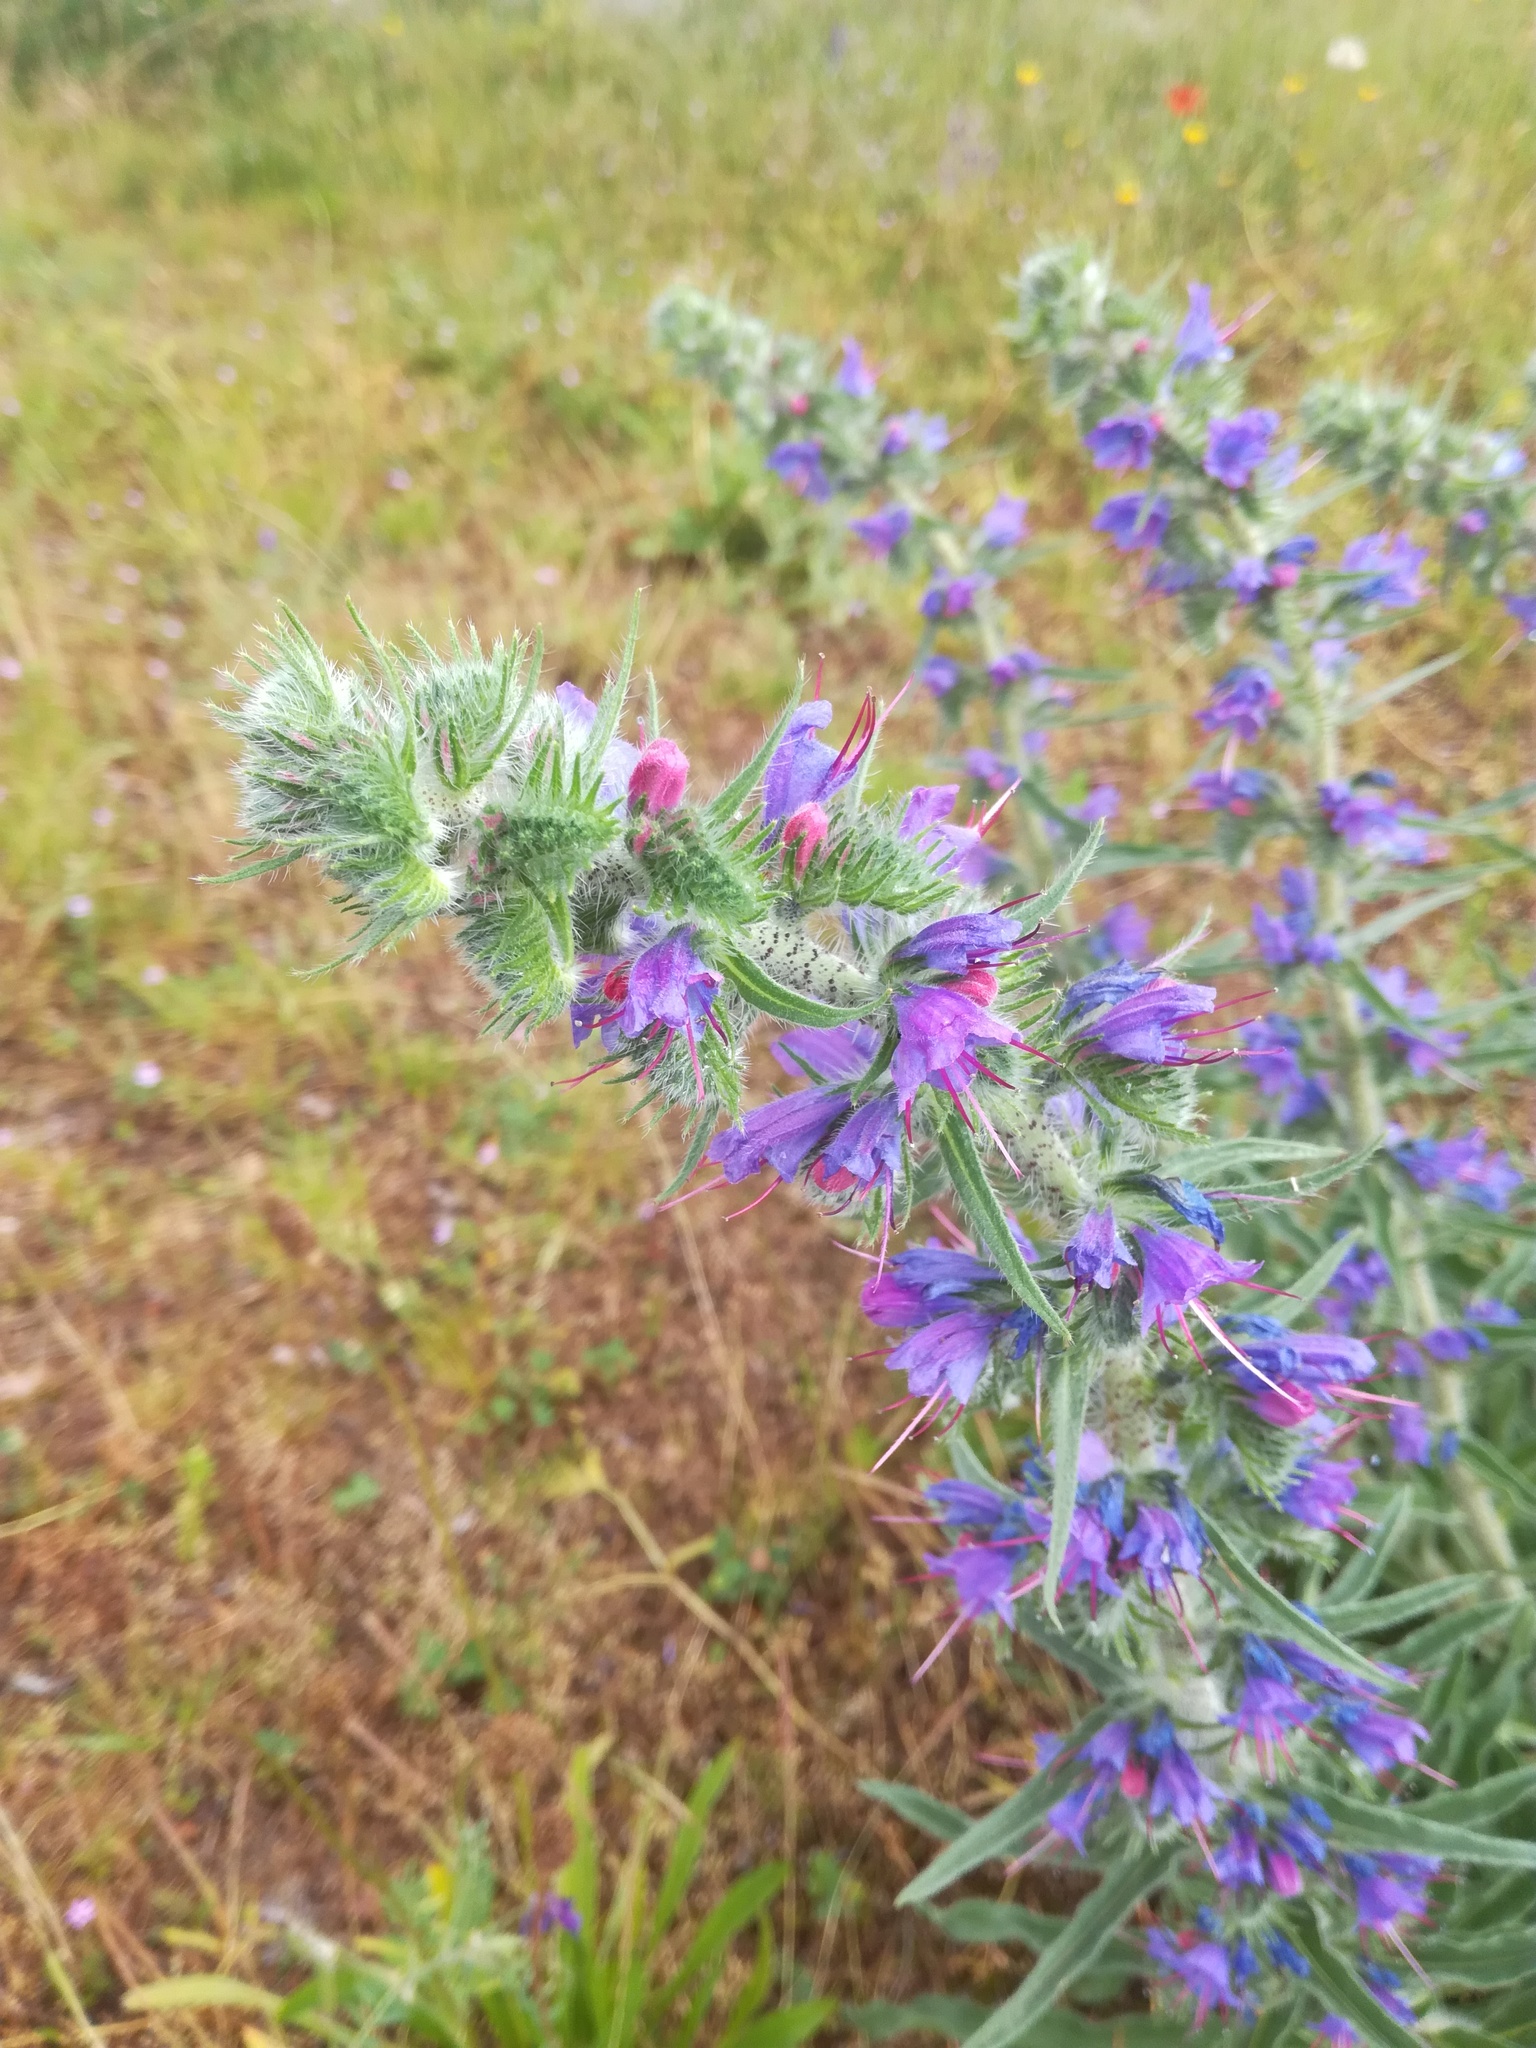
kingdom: Plantae
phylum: Tracheophyta
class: Magnoliopsida
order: Boraginales
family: Boraginaceae
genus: Echium
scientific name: Echium vulgare
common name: Common viper's bugloss
